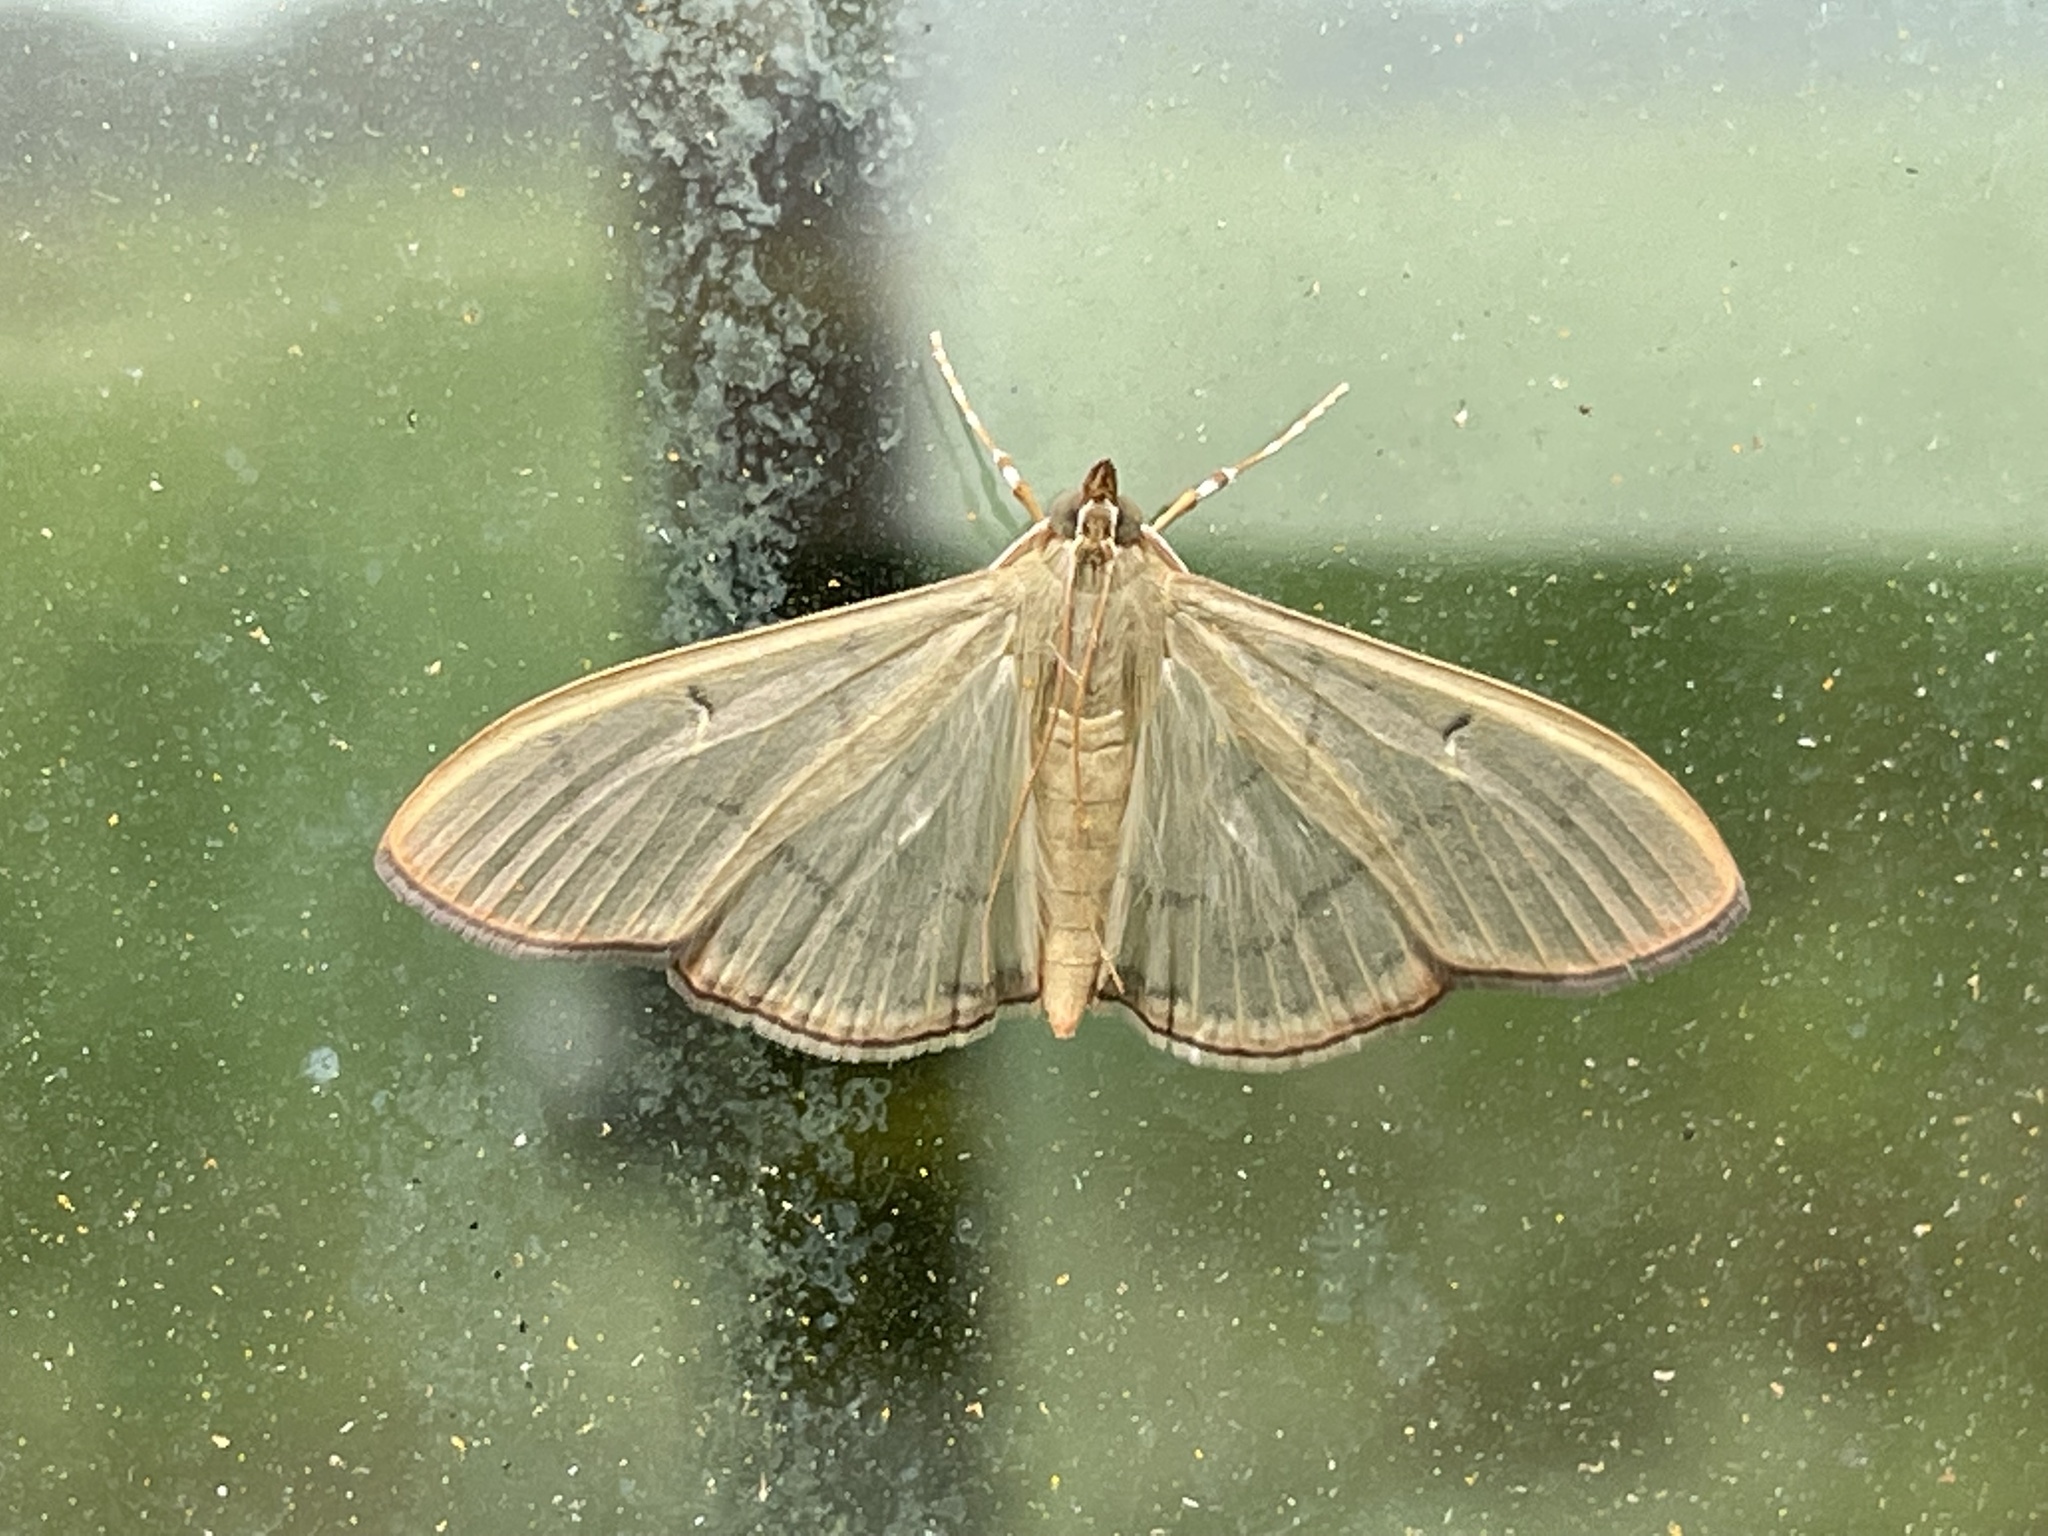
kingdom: Animalia
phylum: Arthropoda
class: Insecta
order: Lepidoptera
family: Crambidae
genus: Condylorrhiza
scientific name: Condylorrhiza vestigialis
